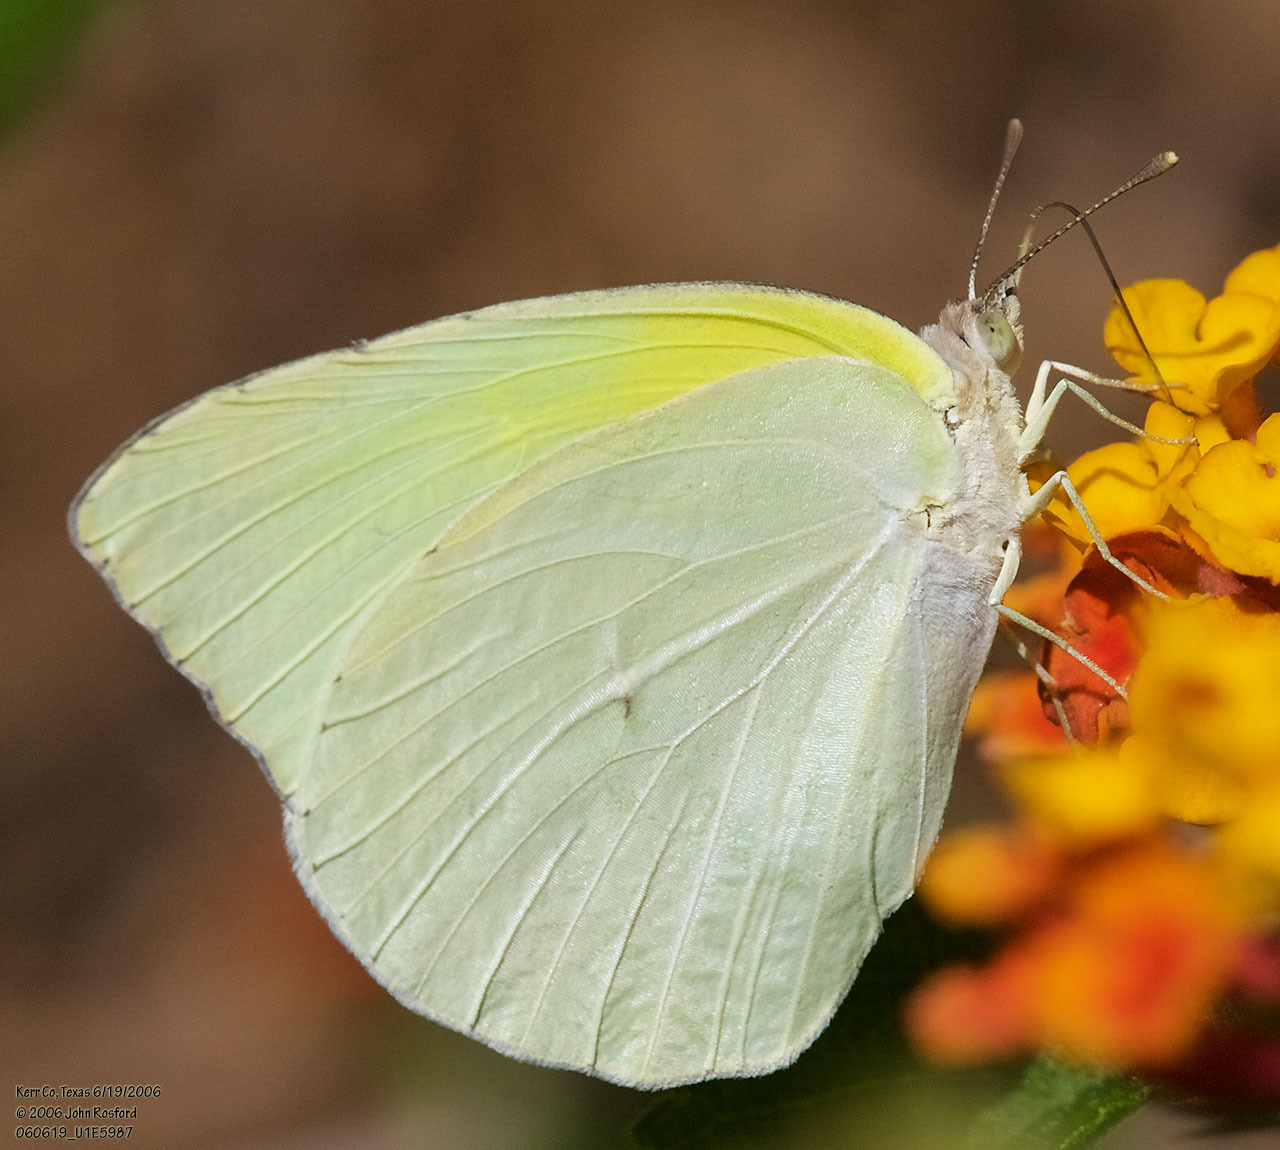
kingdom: Animalia
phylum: Arthropoda
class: Insecta
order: Lepidoptera
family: Pieridae
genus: Kricogonia
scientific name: Kricogonia lyside
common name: Guayacan sulphur,
